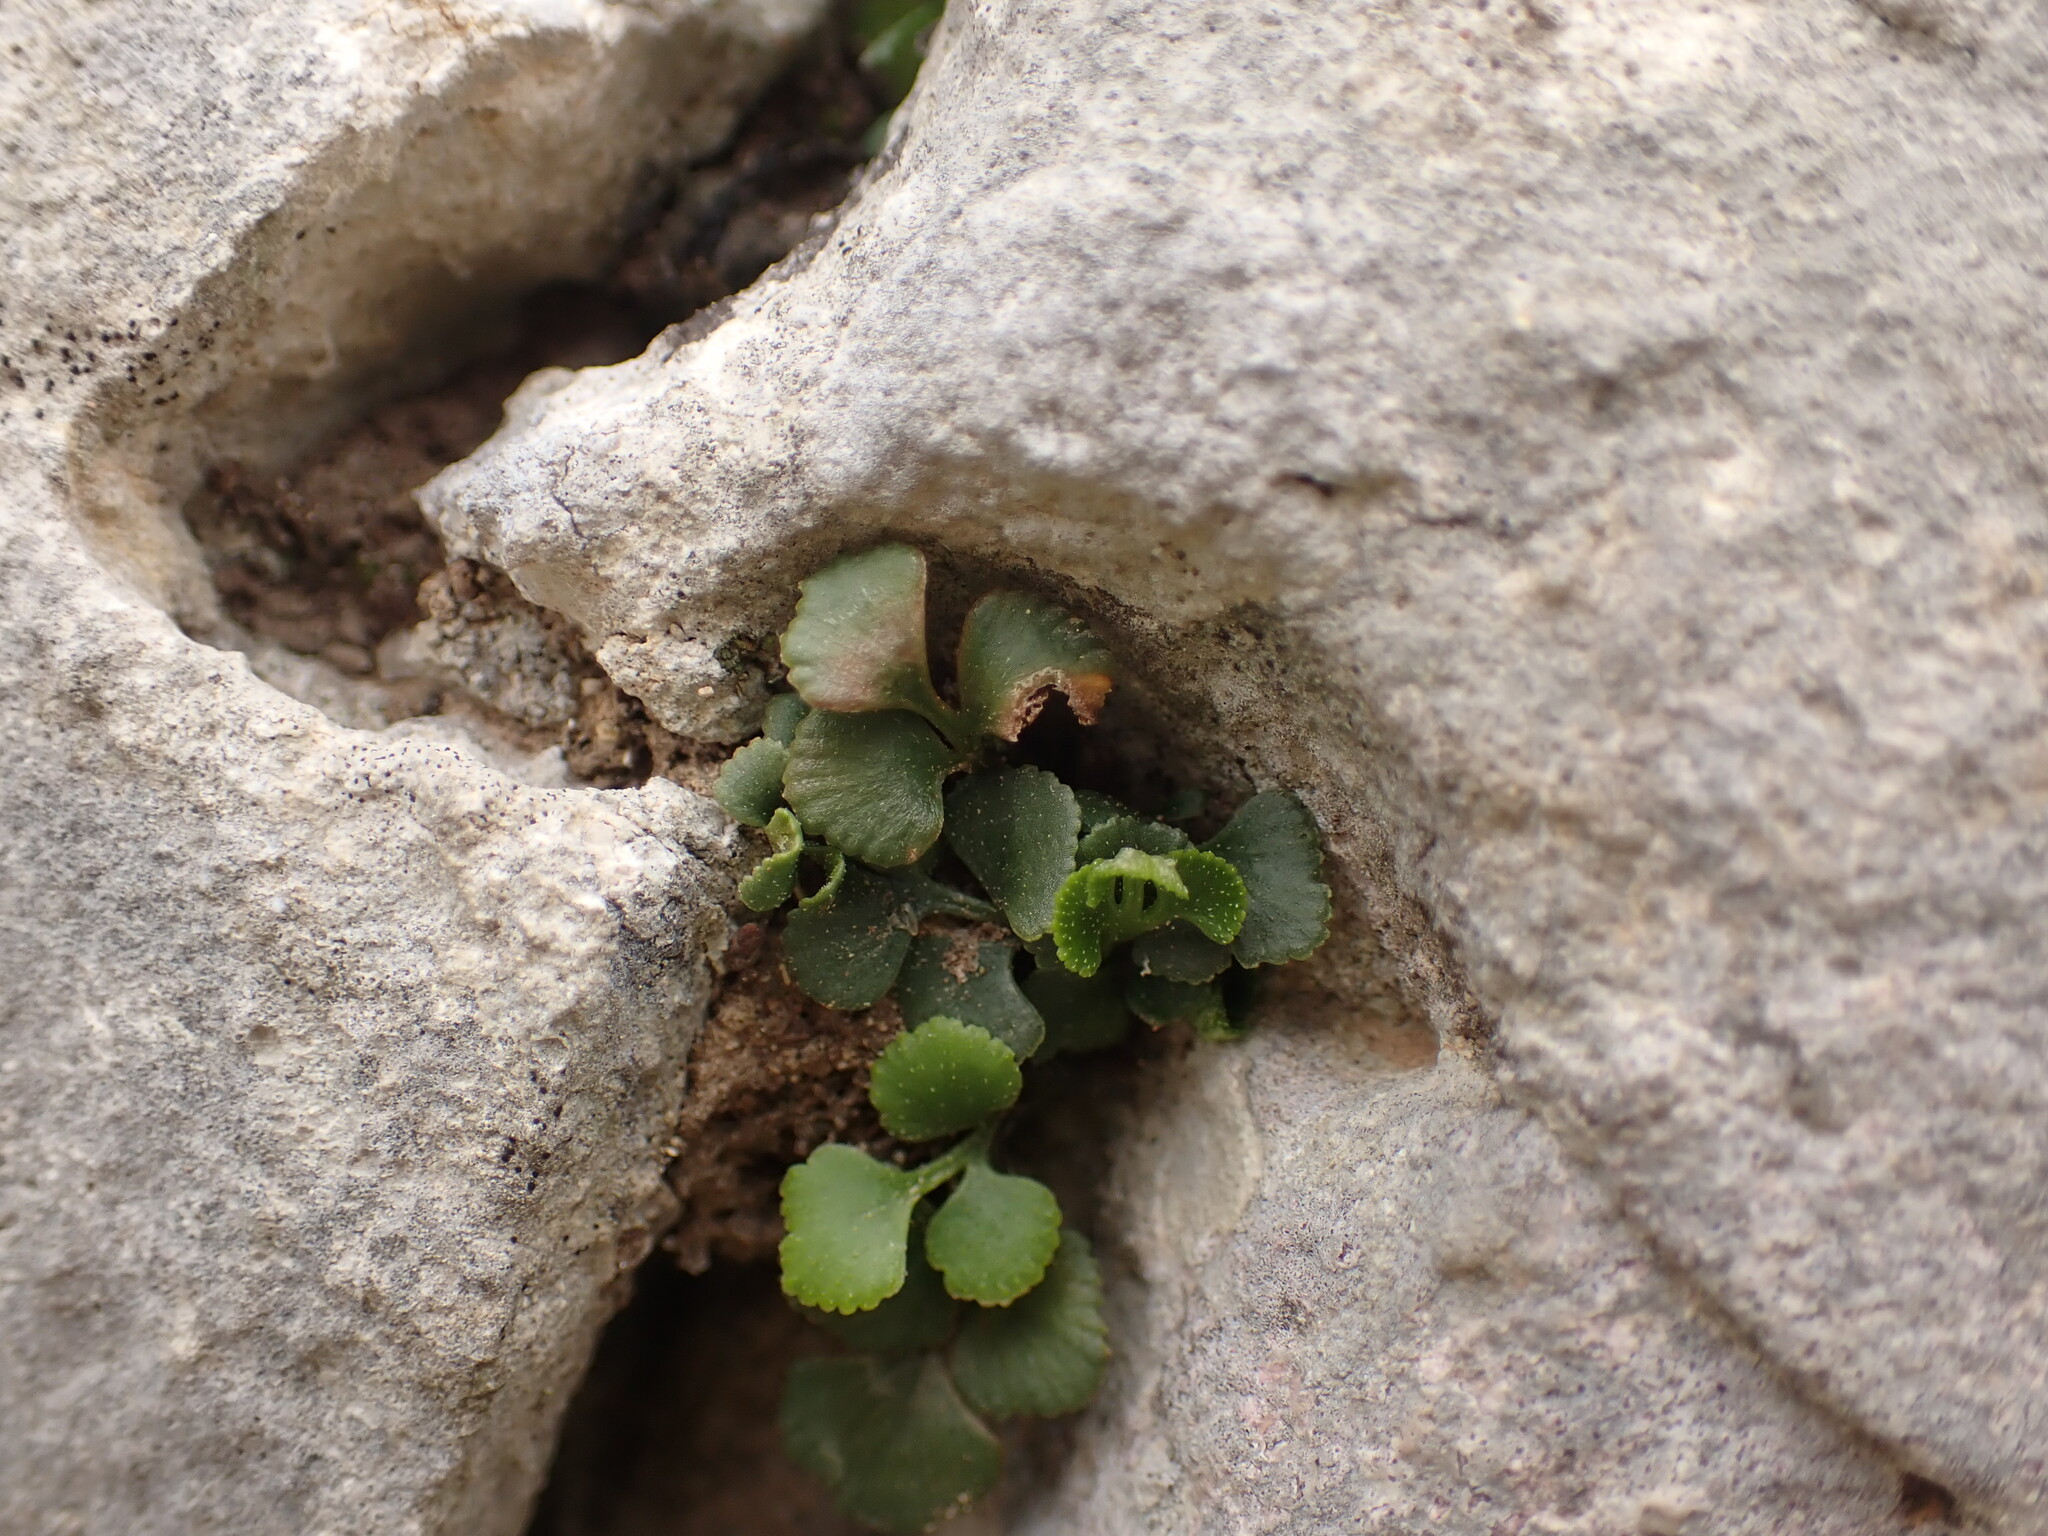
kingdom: Plantae
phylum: Tracheophyta
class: Polypodiopsida
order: Polypodiales
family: Aspleniaceae
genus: Asplenium
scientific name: Asplenium ruta-muraria
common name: Wall-rue
